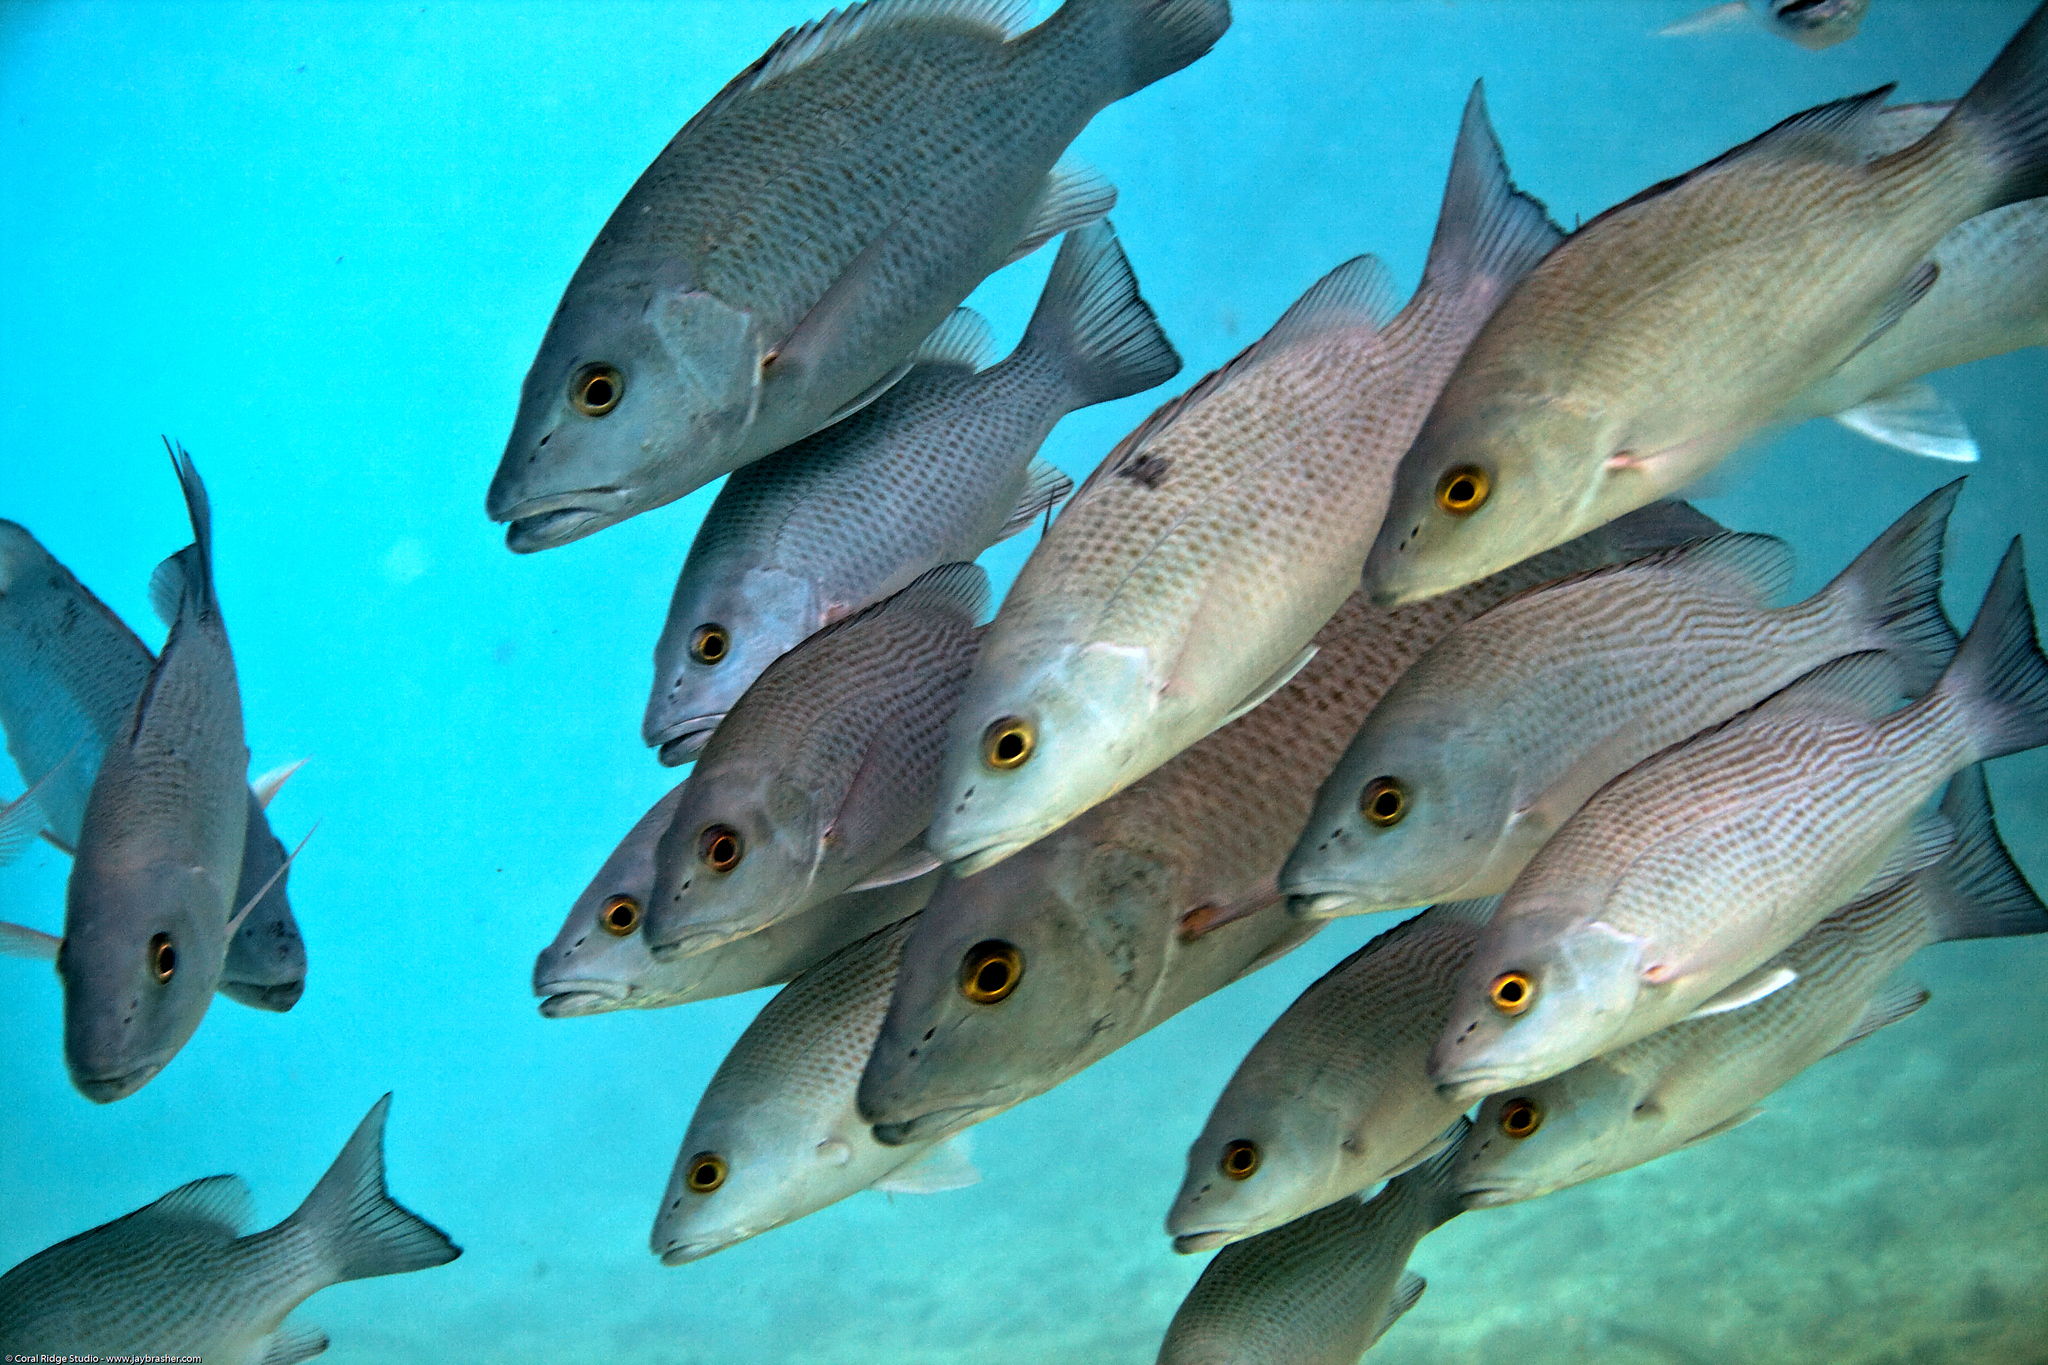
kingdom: Animalia
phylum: Chordata
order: Perciformes
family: Lutjanidae
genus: Lutjanus
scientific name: Lutjanus griseus
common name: Gray snapper
